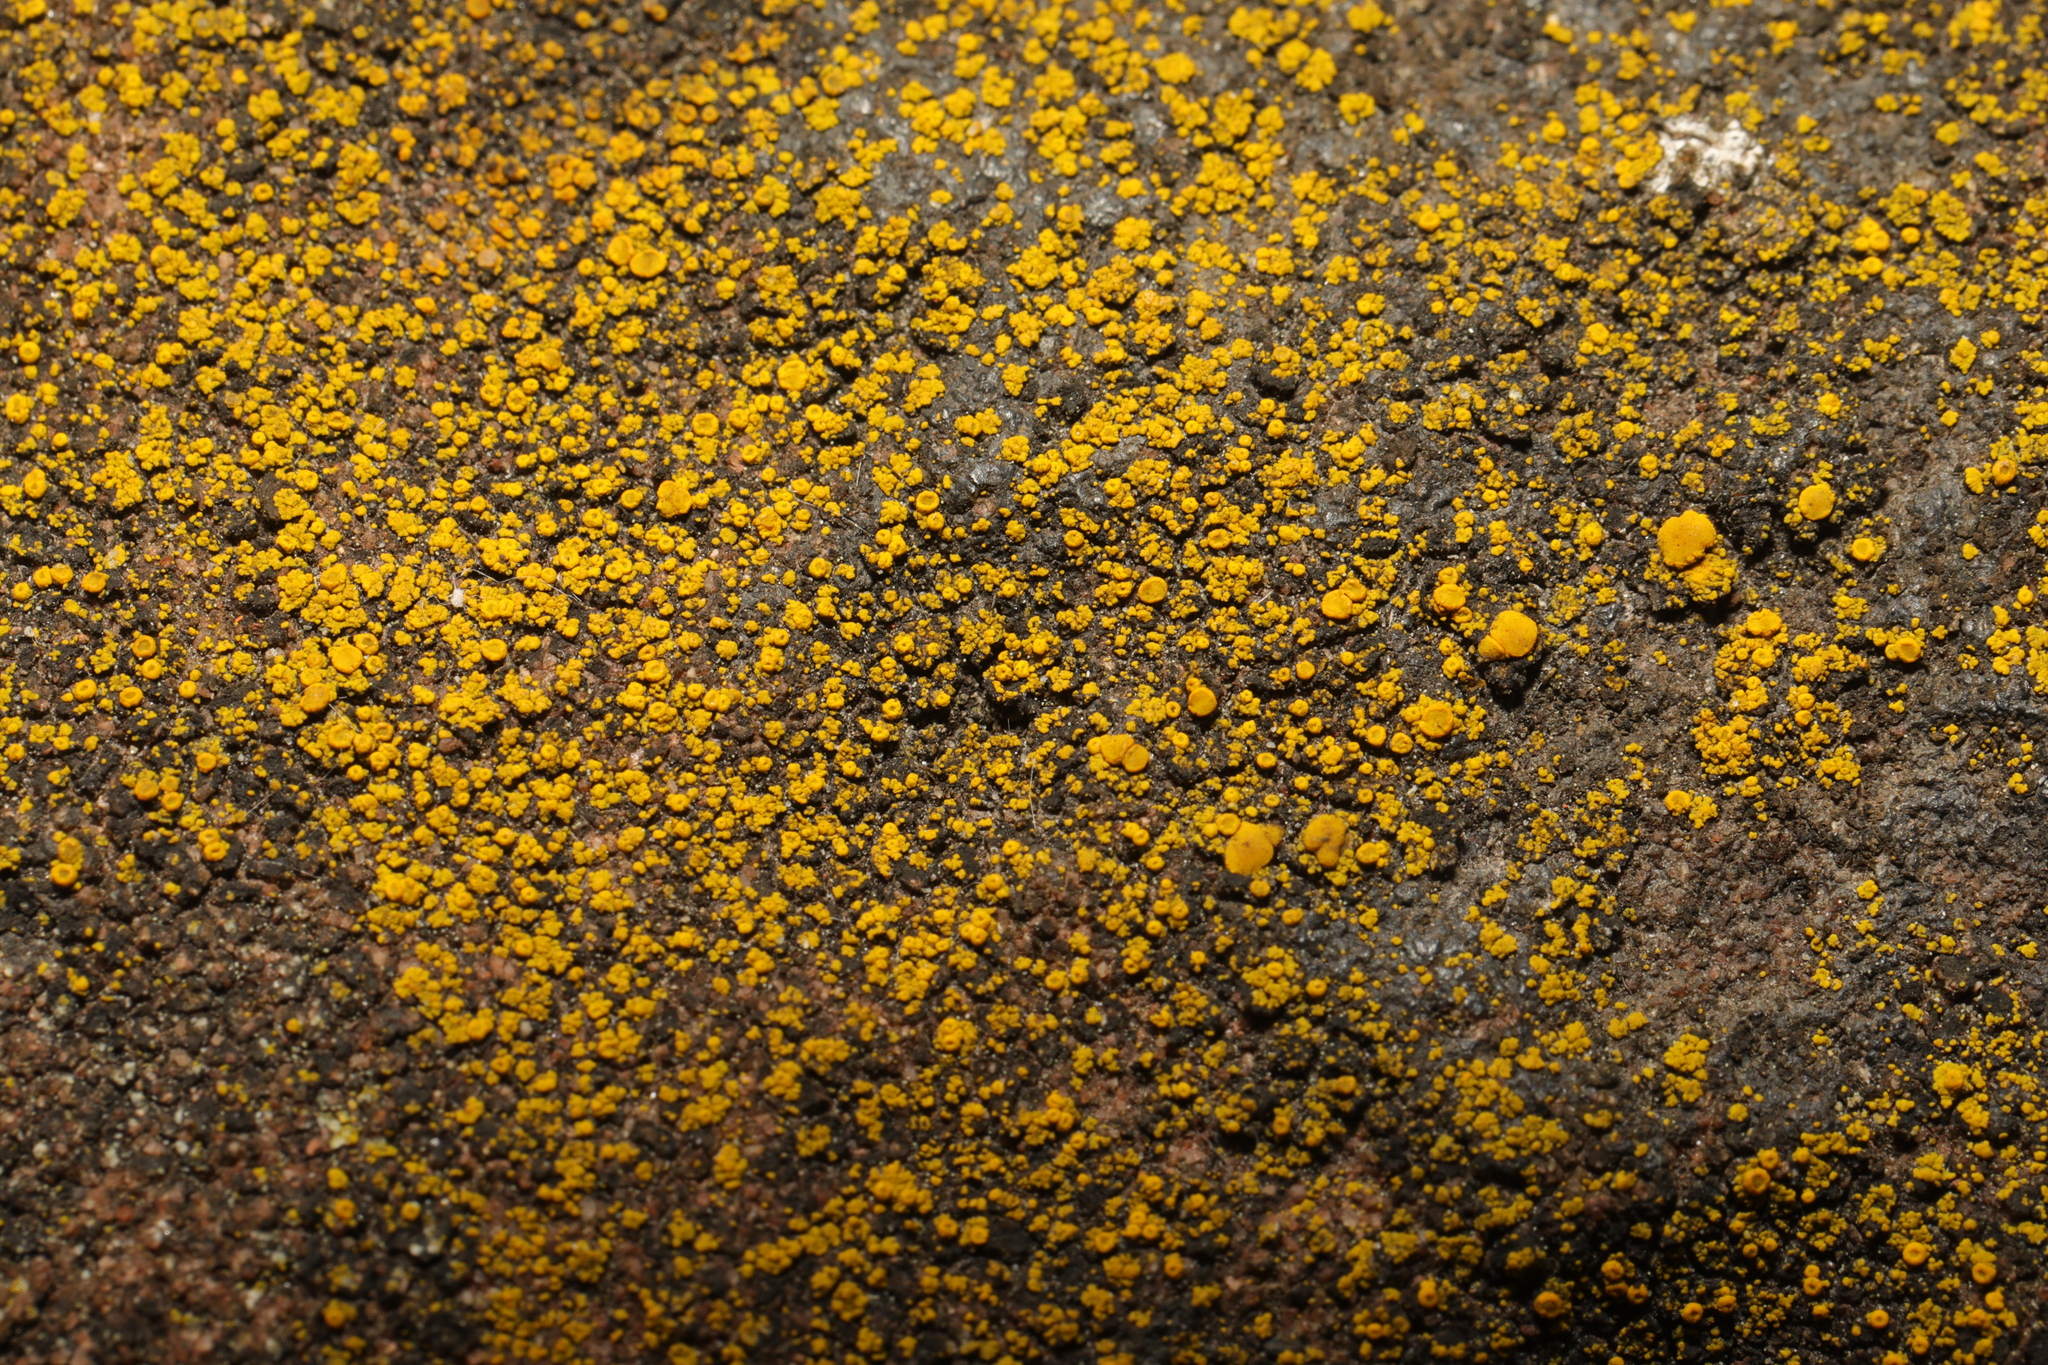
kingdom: Fungi
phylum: Ascomycota
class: Candelariomycetes
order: Candelariales
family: Candelariaceae
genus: Candelariella
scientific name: Candelariella vitellina
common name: Common goldspeck
